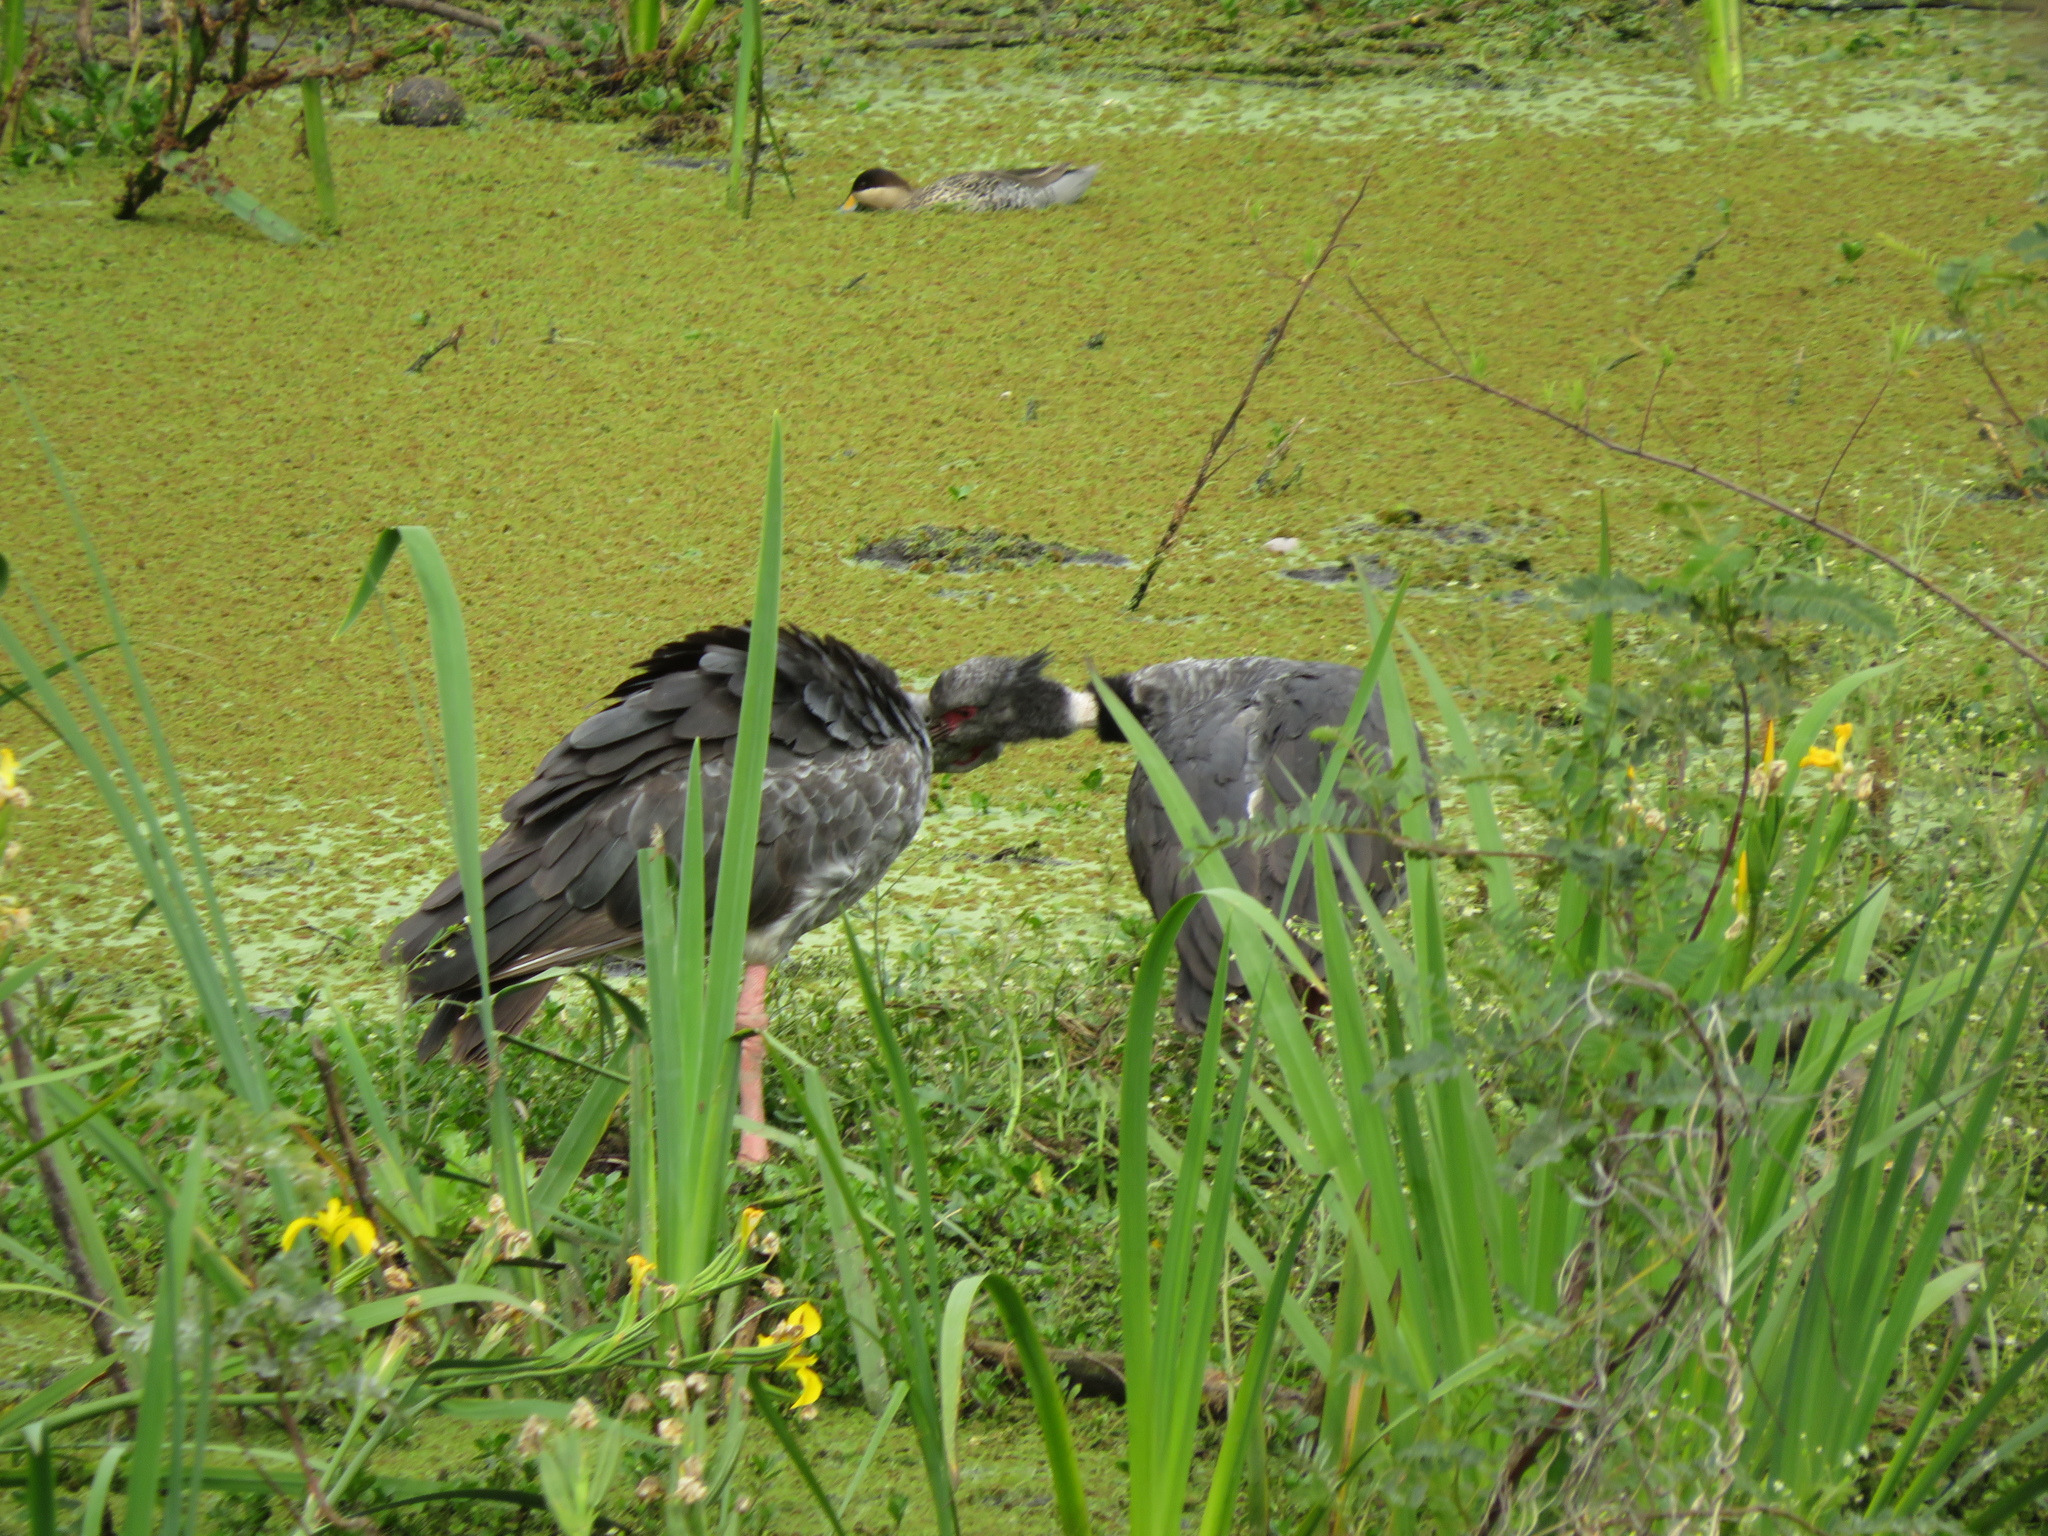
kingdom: Animalia
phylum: Chordata
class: Aves
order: Anseriformes
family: Anhimidae
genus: Chauna
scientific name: Chauna torquata
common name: Southern screamer
